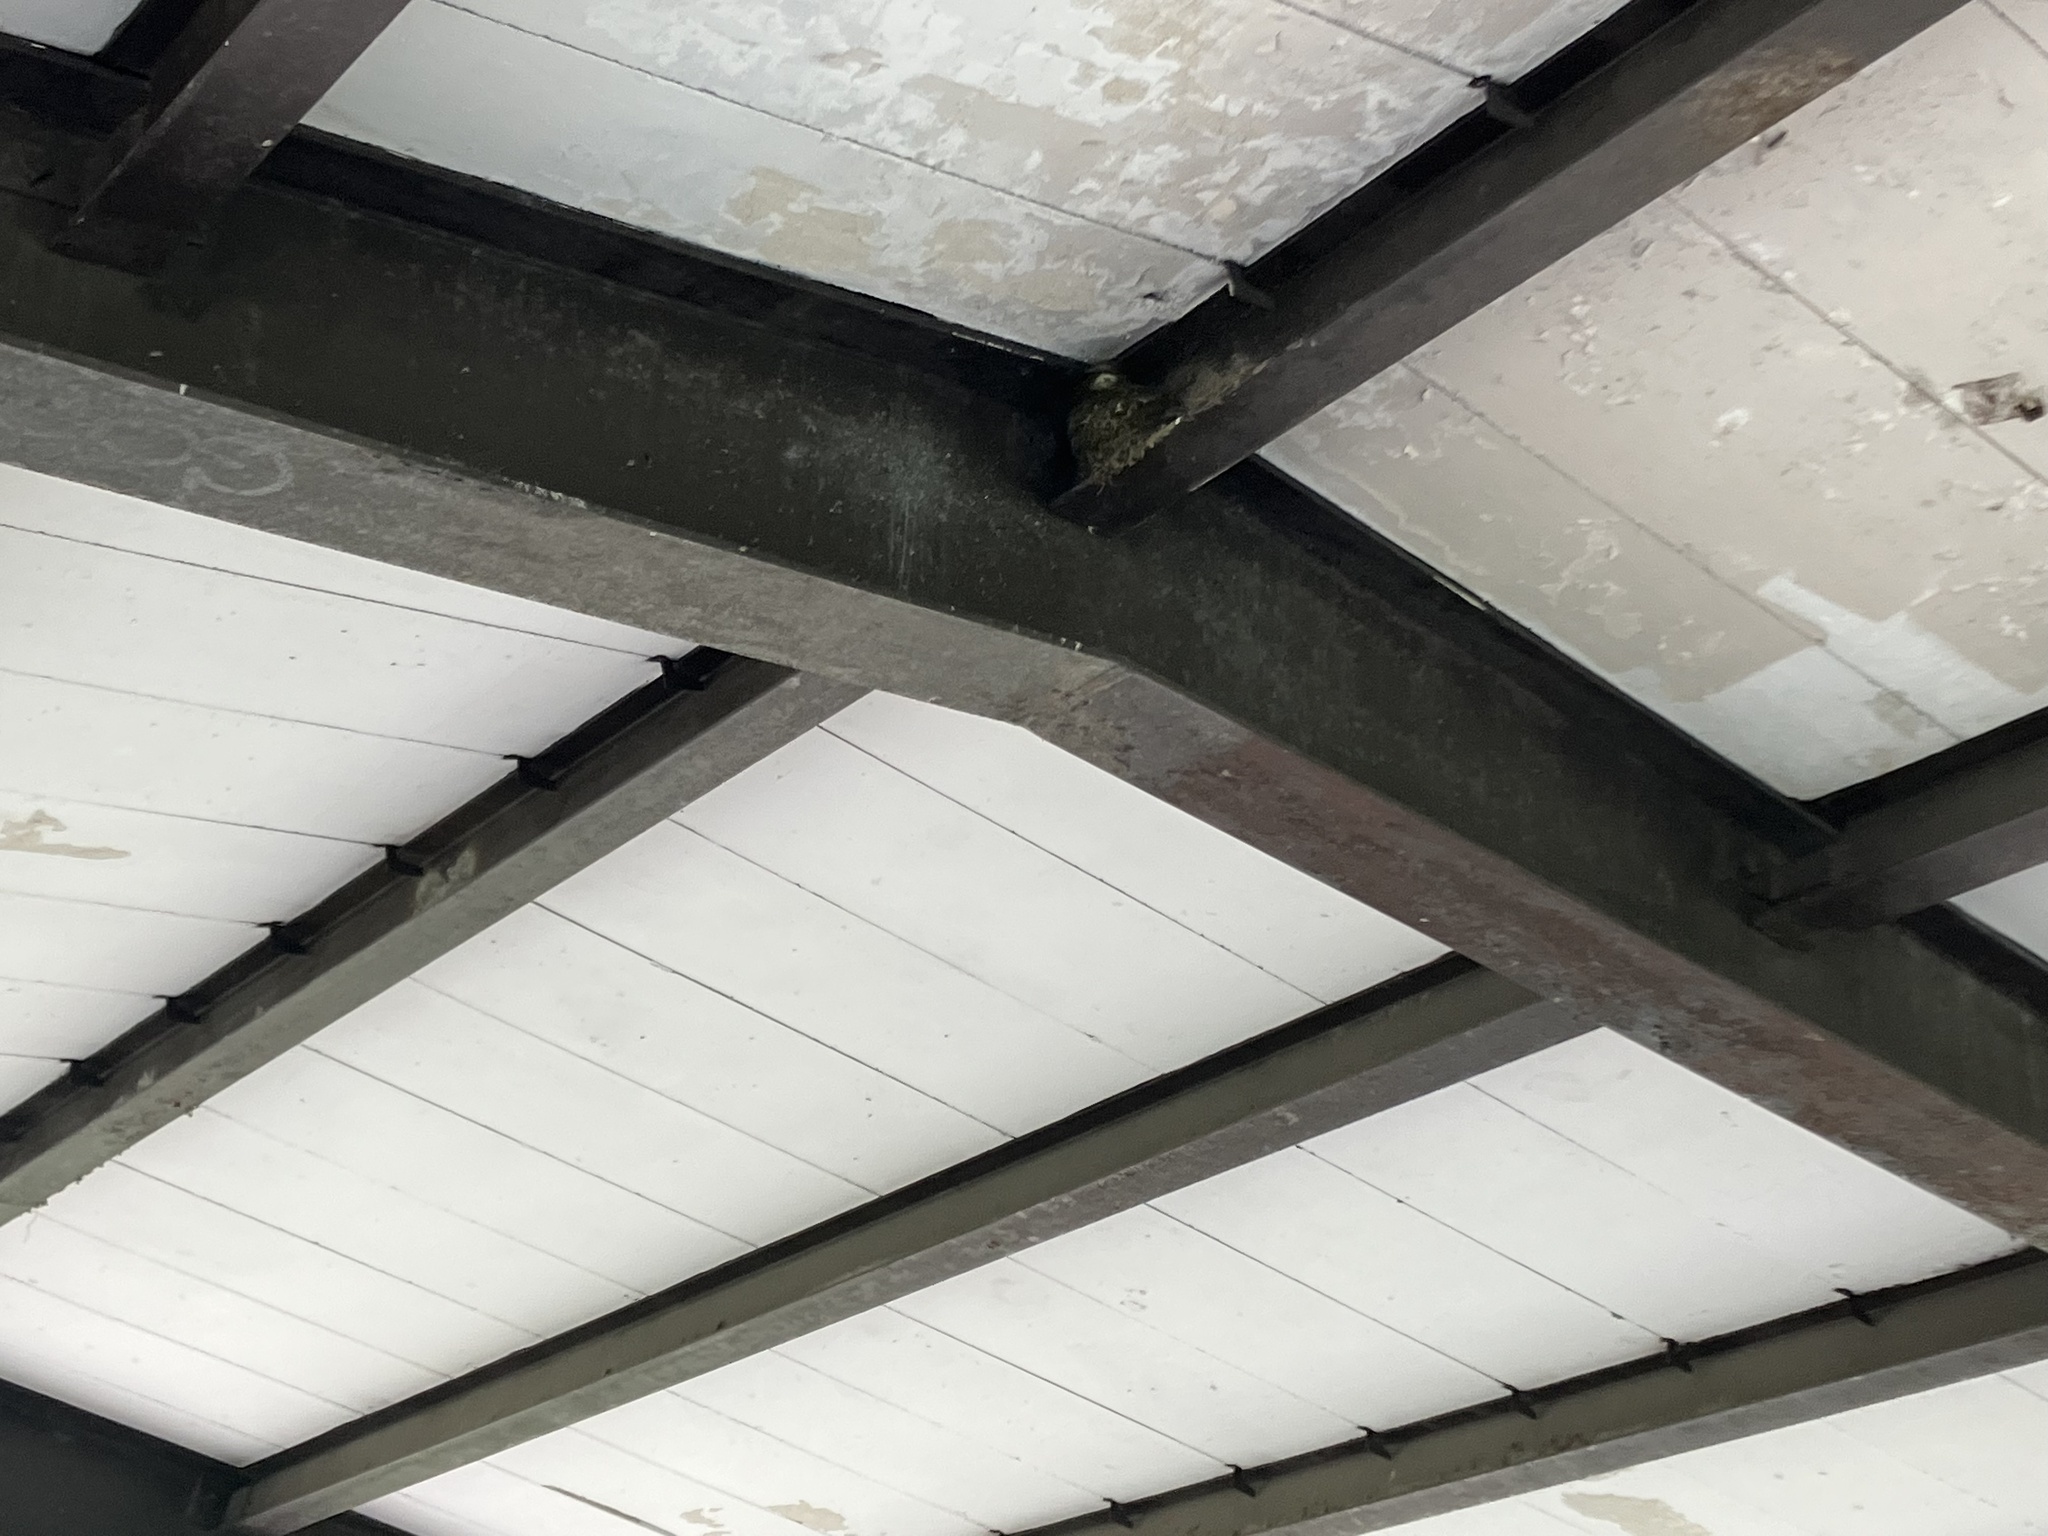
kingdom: Animalia
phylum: Chordata
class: Aves
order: Passeriformes
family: Tyrannidae
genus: Sayornis
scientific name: Sayornis phoebe
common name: Eastern phoebe
